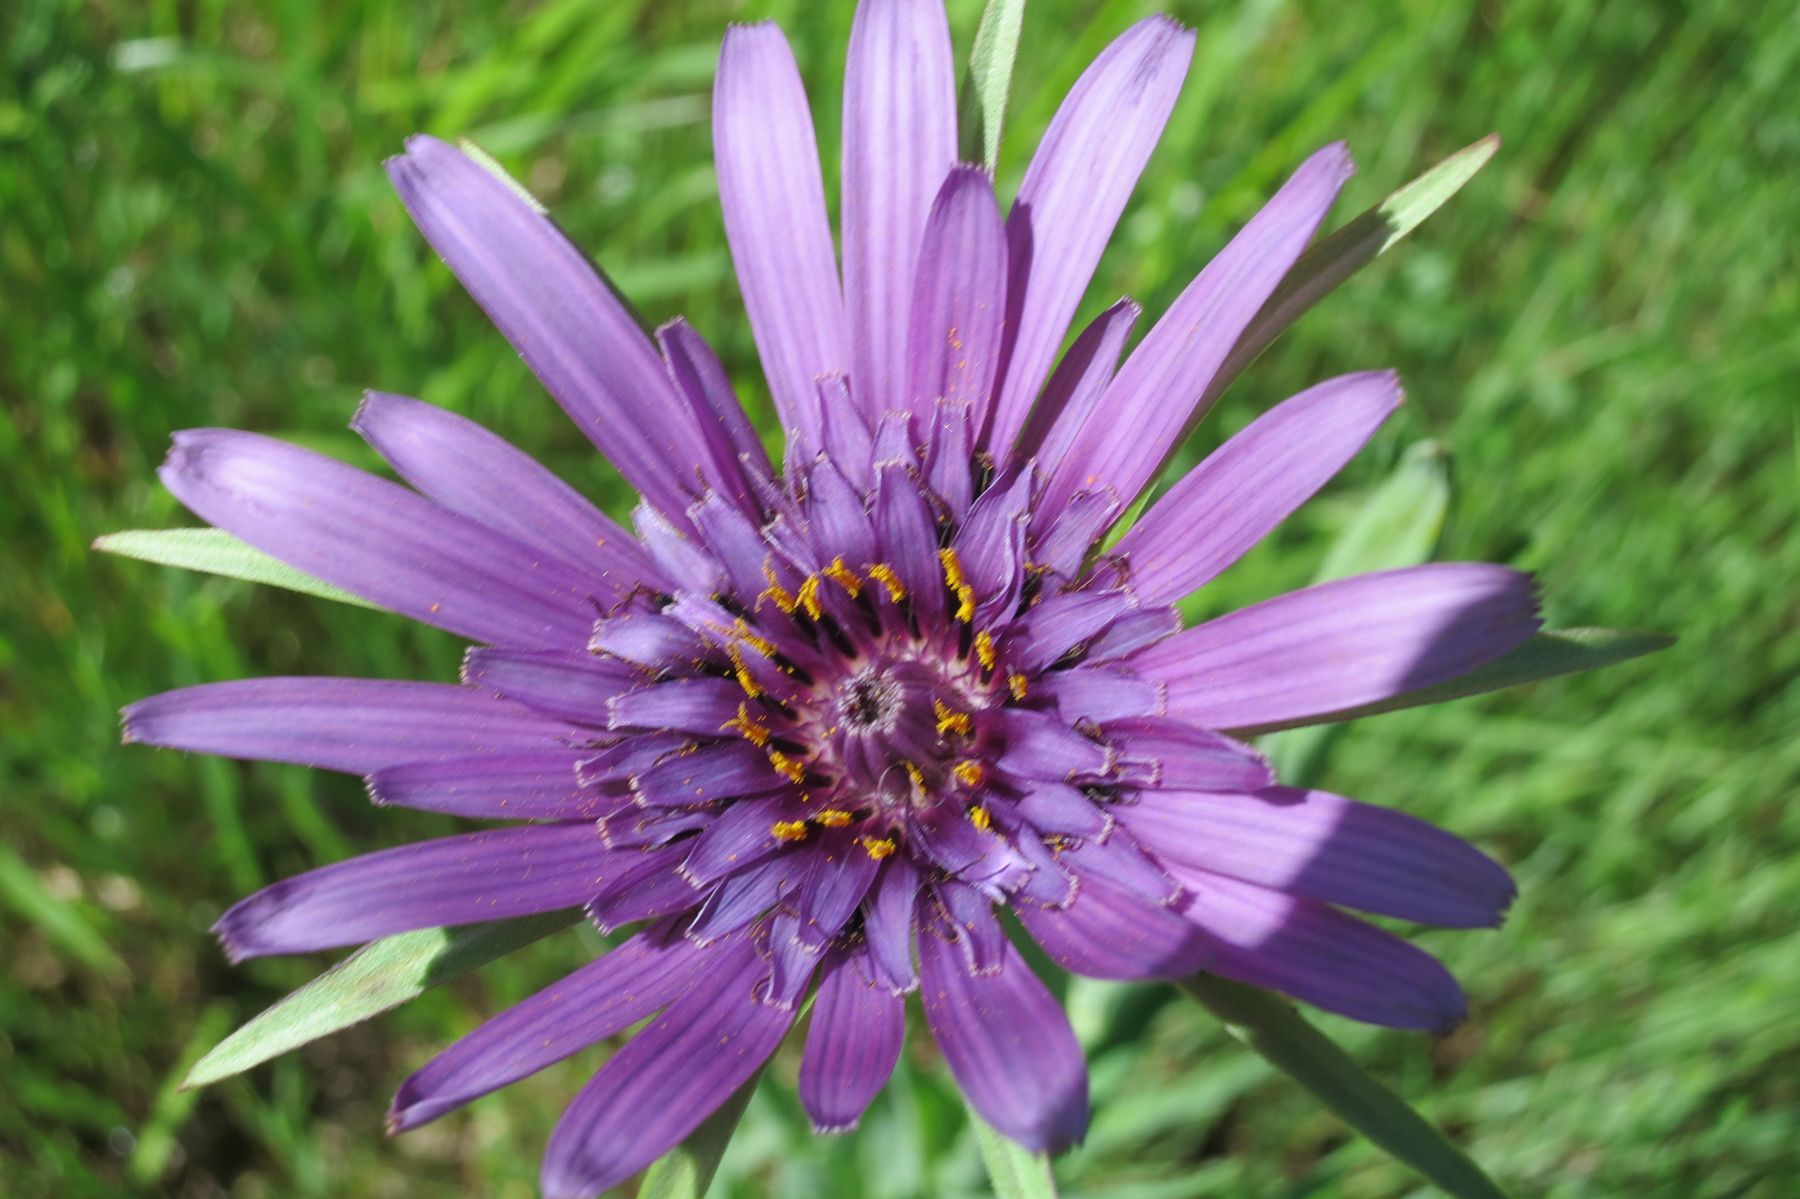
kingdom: Plantae
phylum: Tracheophyta
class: Magnoliopsida
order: Asterales
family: Asteraceae
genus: Tragopogon
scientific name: Tragopogon porrifolius
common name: Salsify
